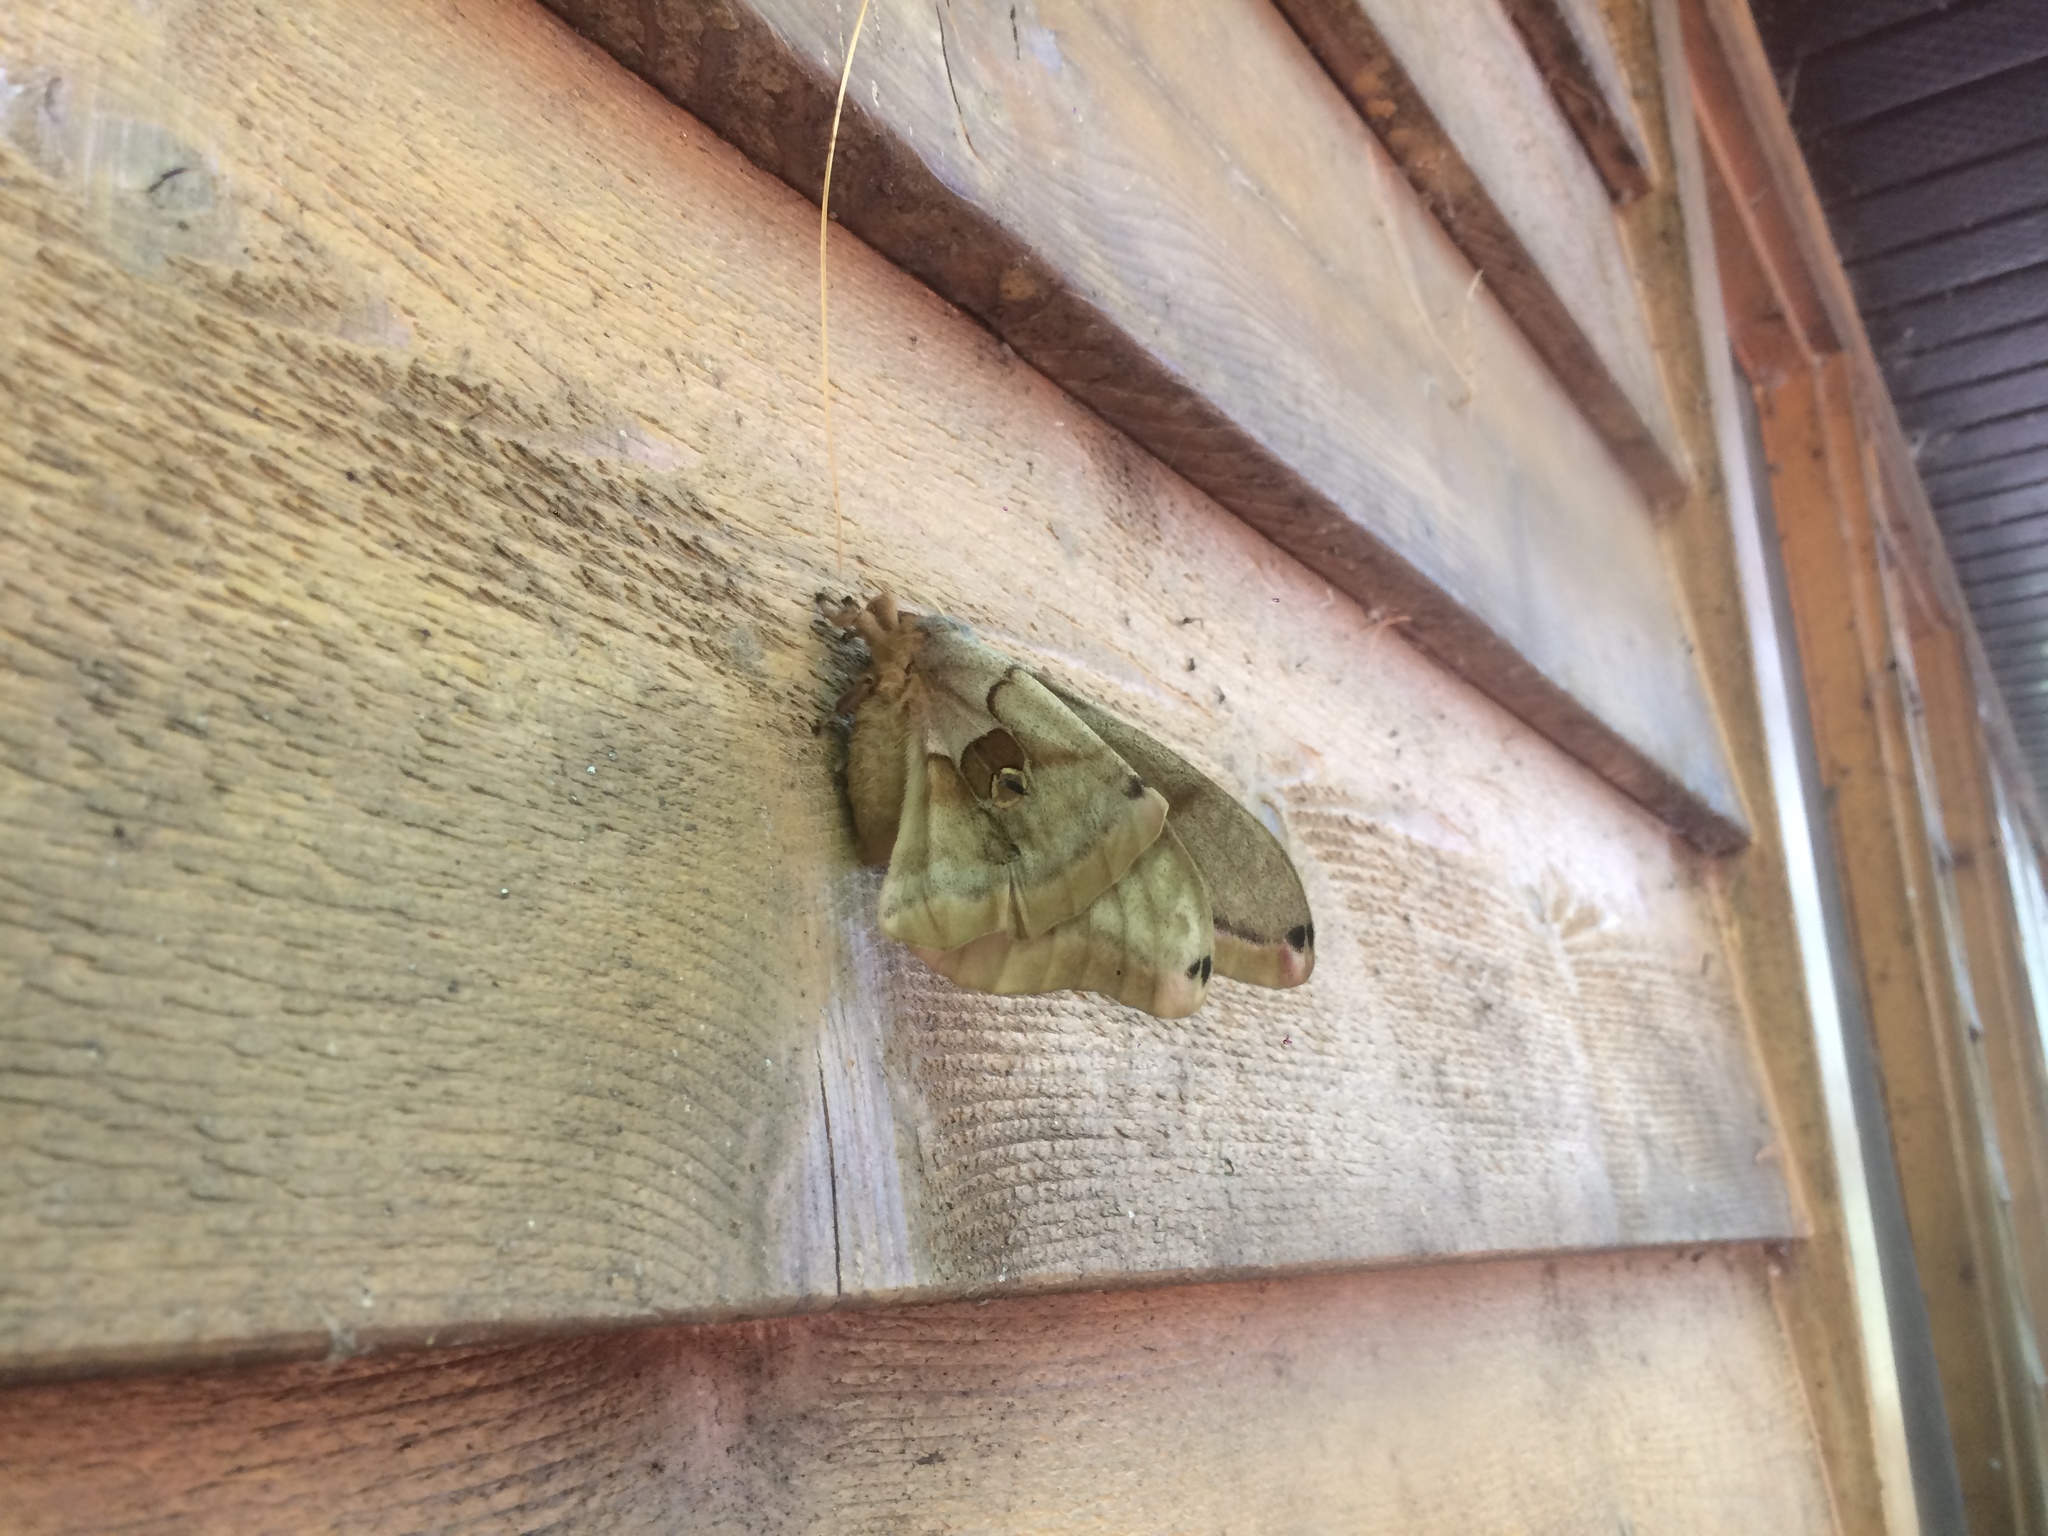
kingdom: Animalia
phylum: Arthropoda
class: Insecta
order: Lepidoptera
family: Saturniidae
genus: Antheraea
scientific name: Antheraea polyphemus
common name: Polyphemus moth
